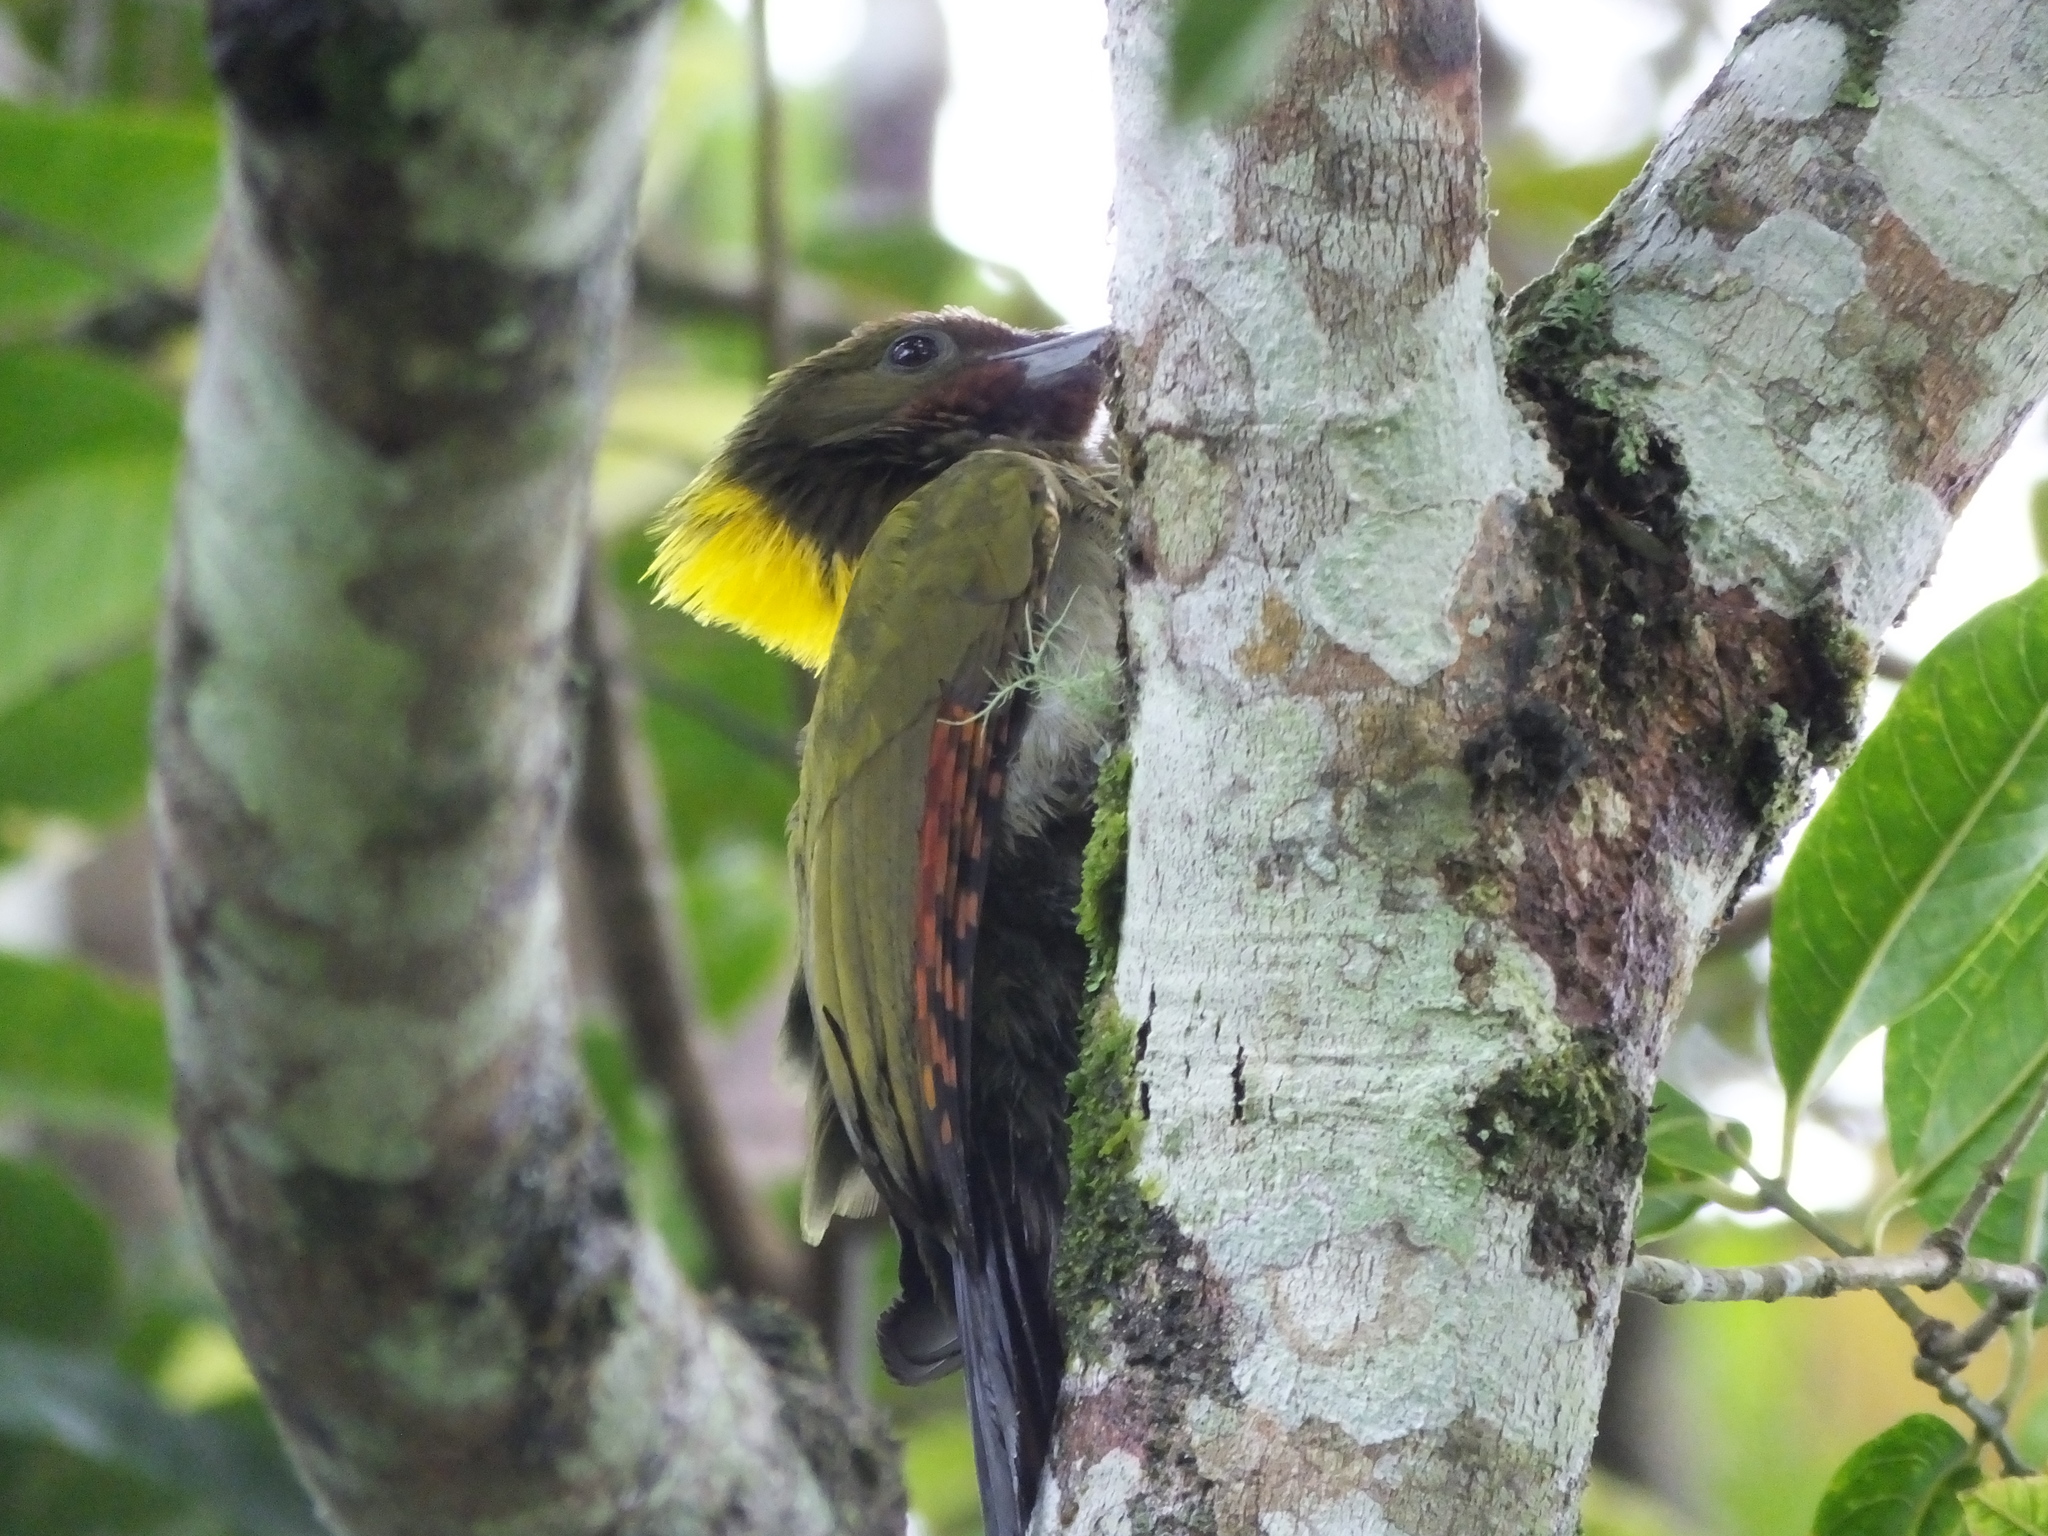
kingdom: Animalia
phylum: Chordata
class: Aves
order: Piciformes
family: Picidae
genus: Chrysophlegma
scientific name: Chrysophlegma flavinucha
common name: Greater yellownape
